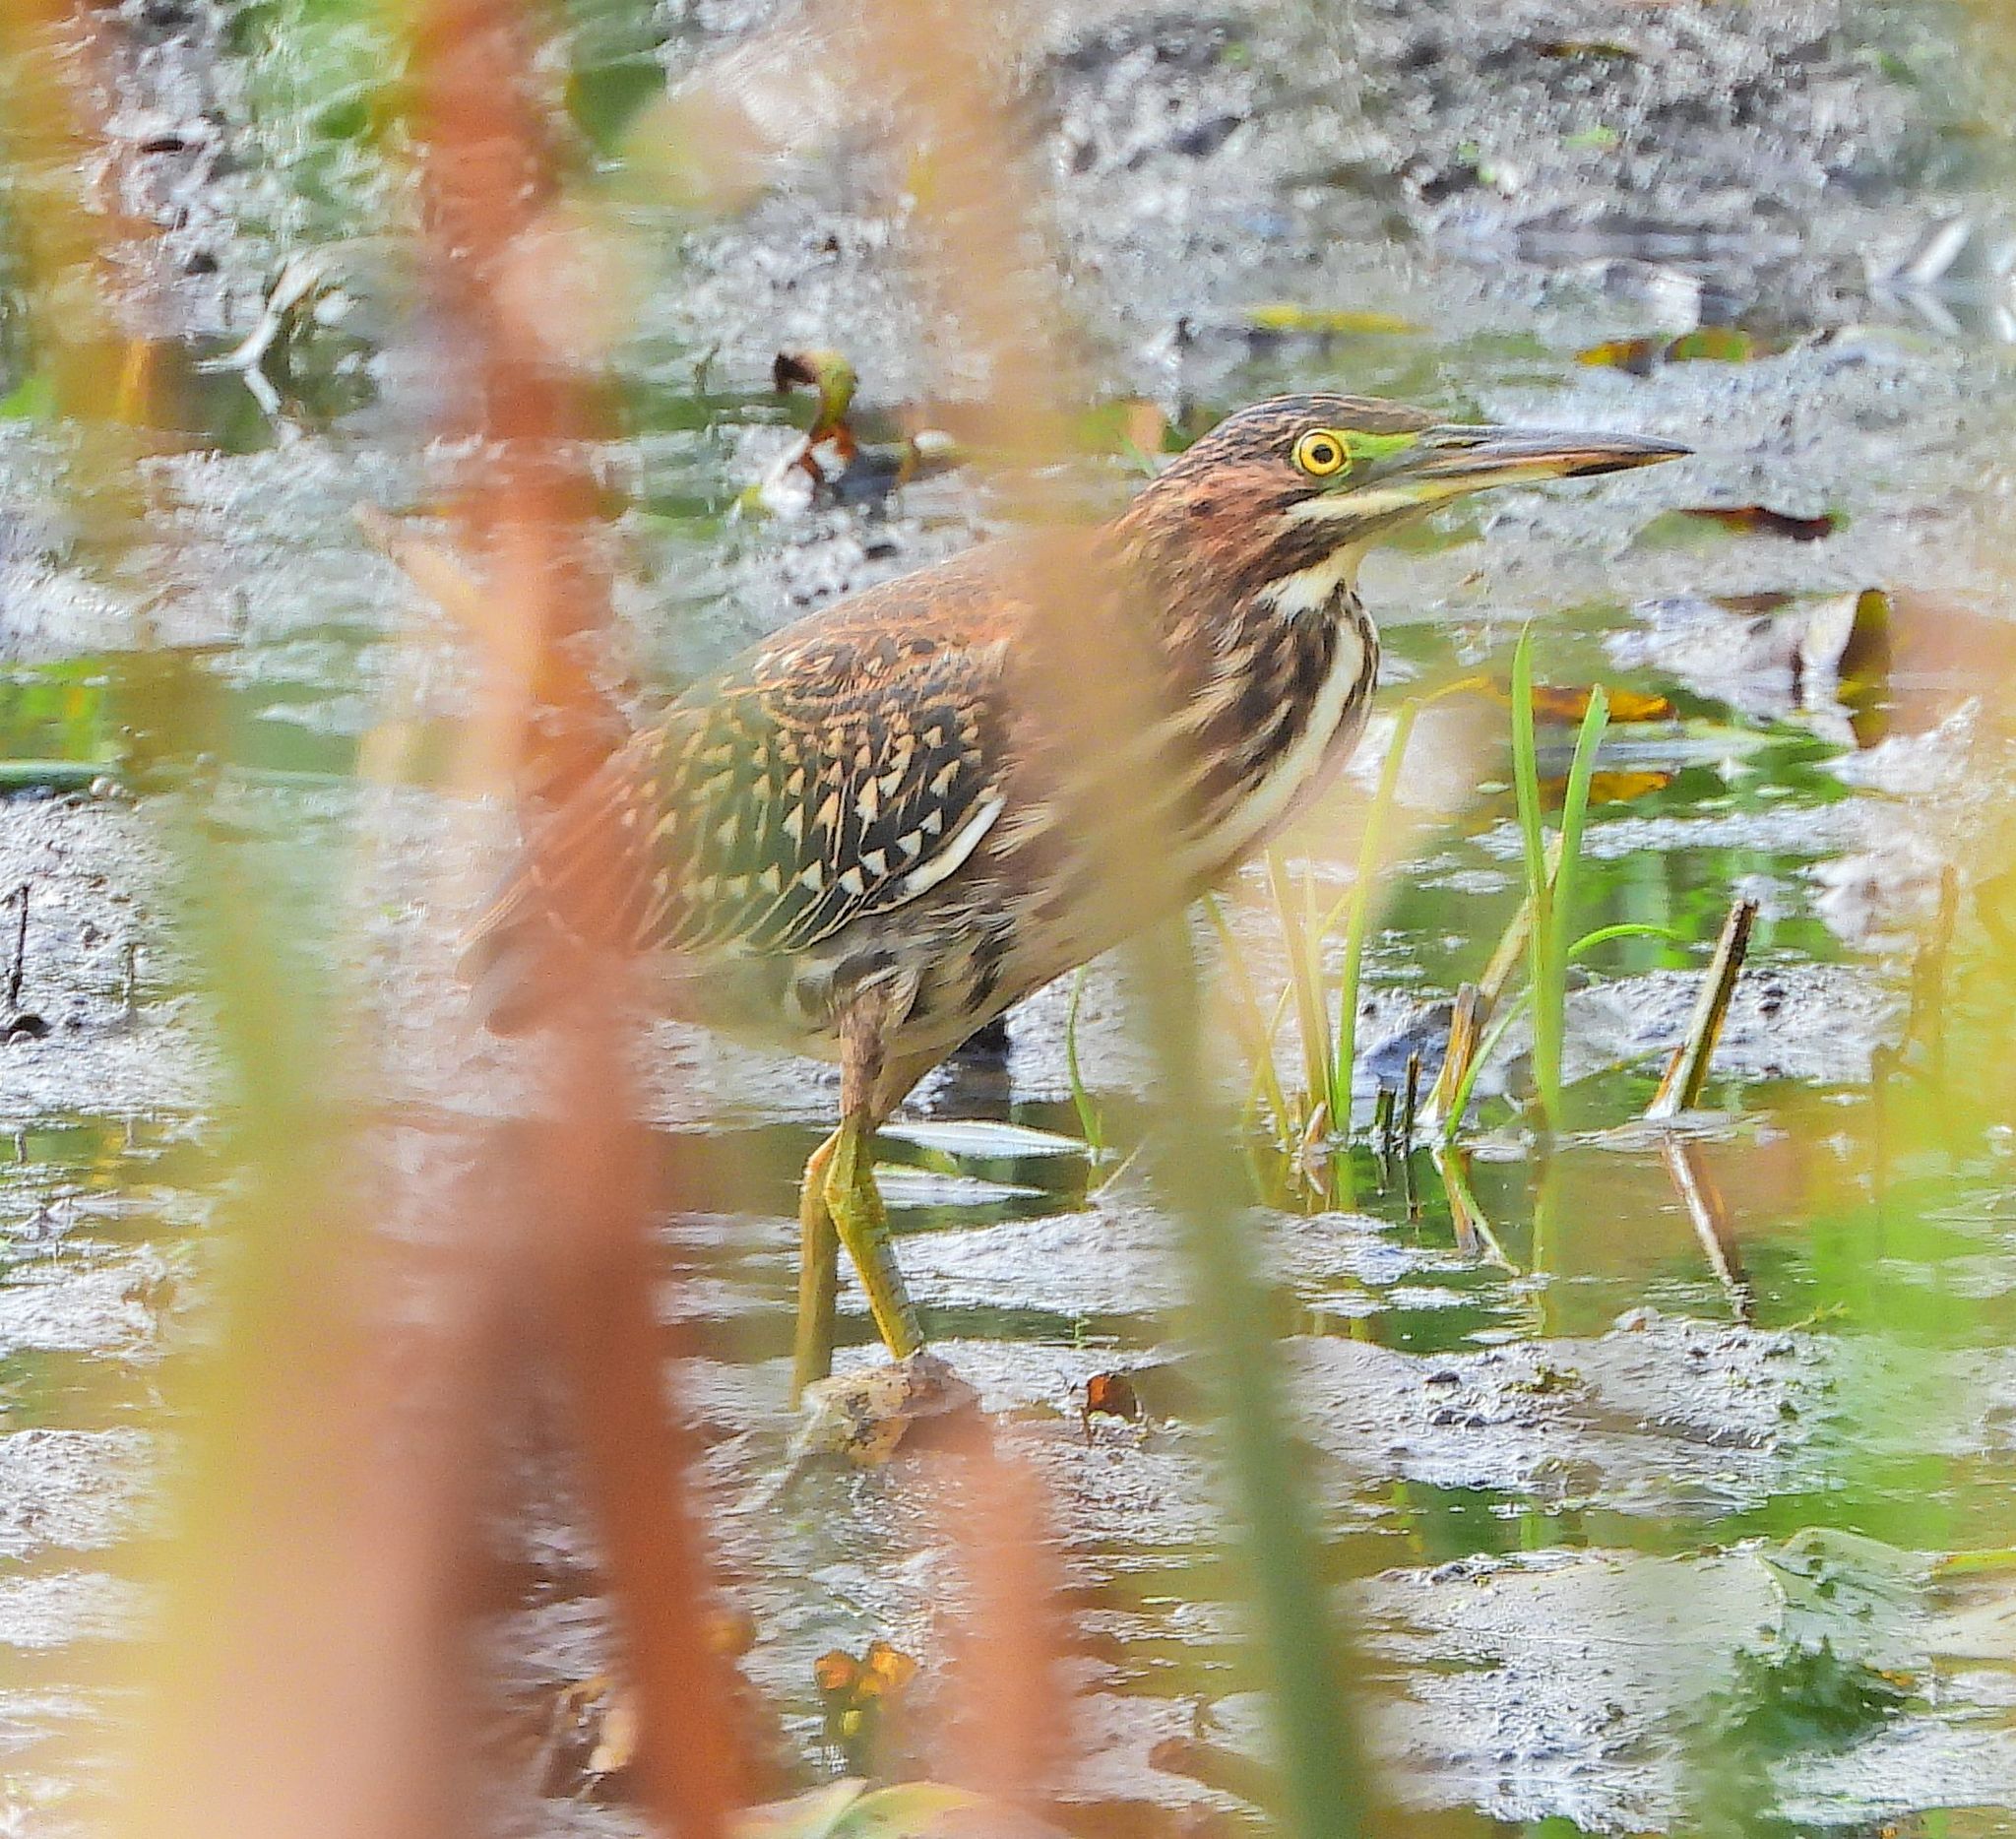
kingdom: Animalia
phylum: Chordata
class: Aves
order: Pelecaniformes
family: Ardeidae
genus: Butorides
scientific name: Butorides virescens
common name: Green heron
